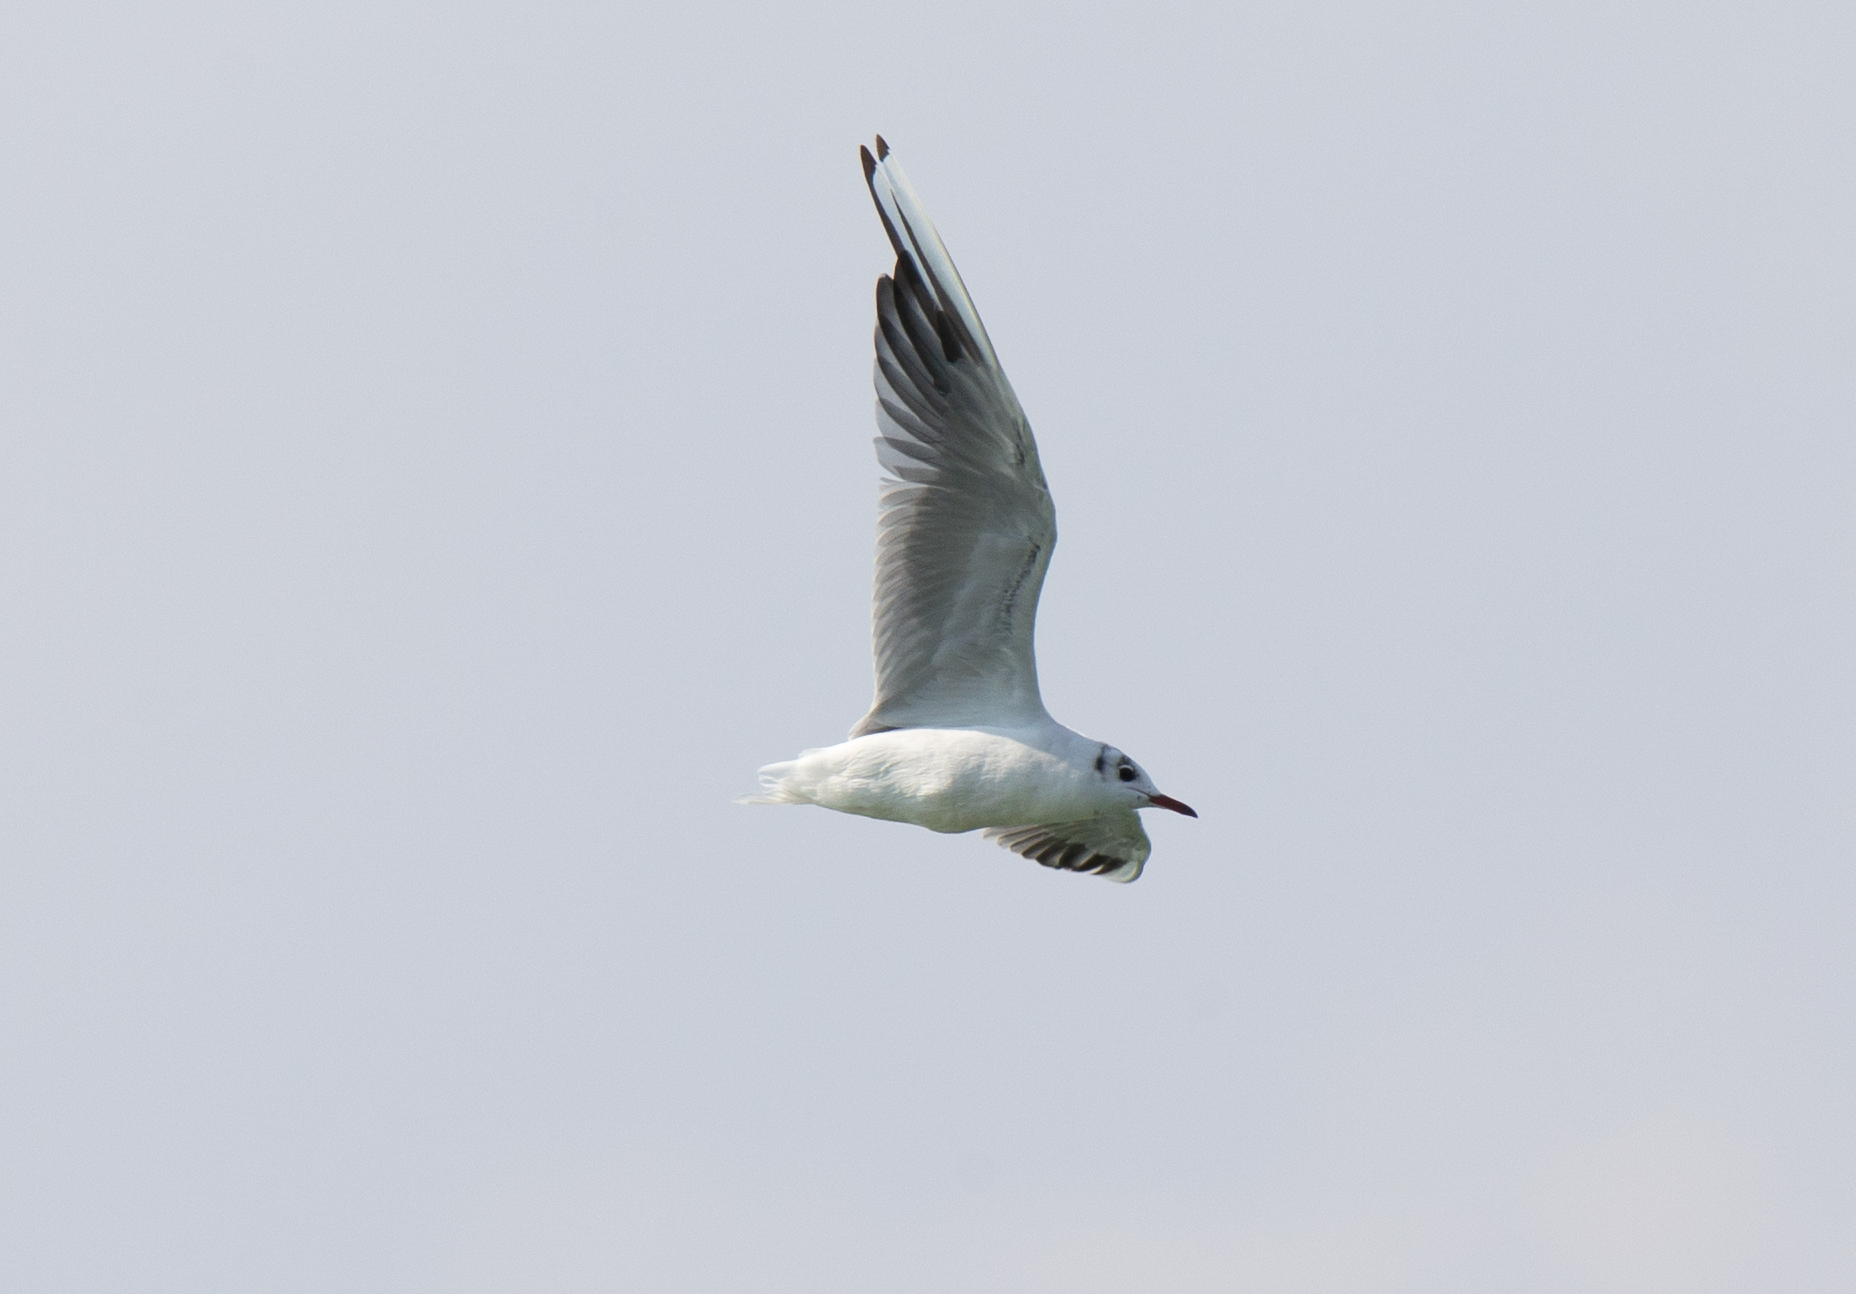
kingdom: Animalia
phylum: Chordata
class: Aves
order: Charadriiformes
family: Laridae
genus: Chroicocephalus
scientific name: Chroicocephalus ridibundus
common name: Black-headed gull
